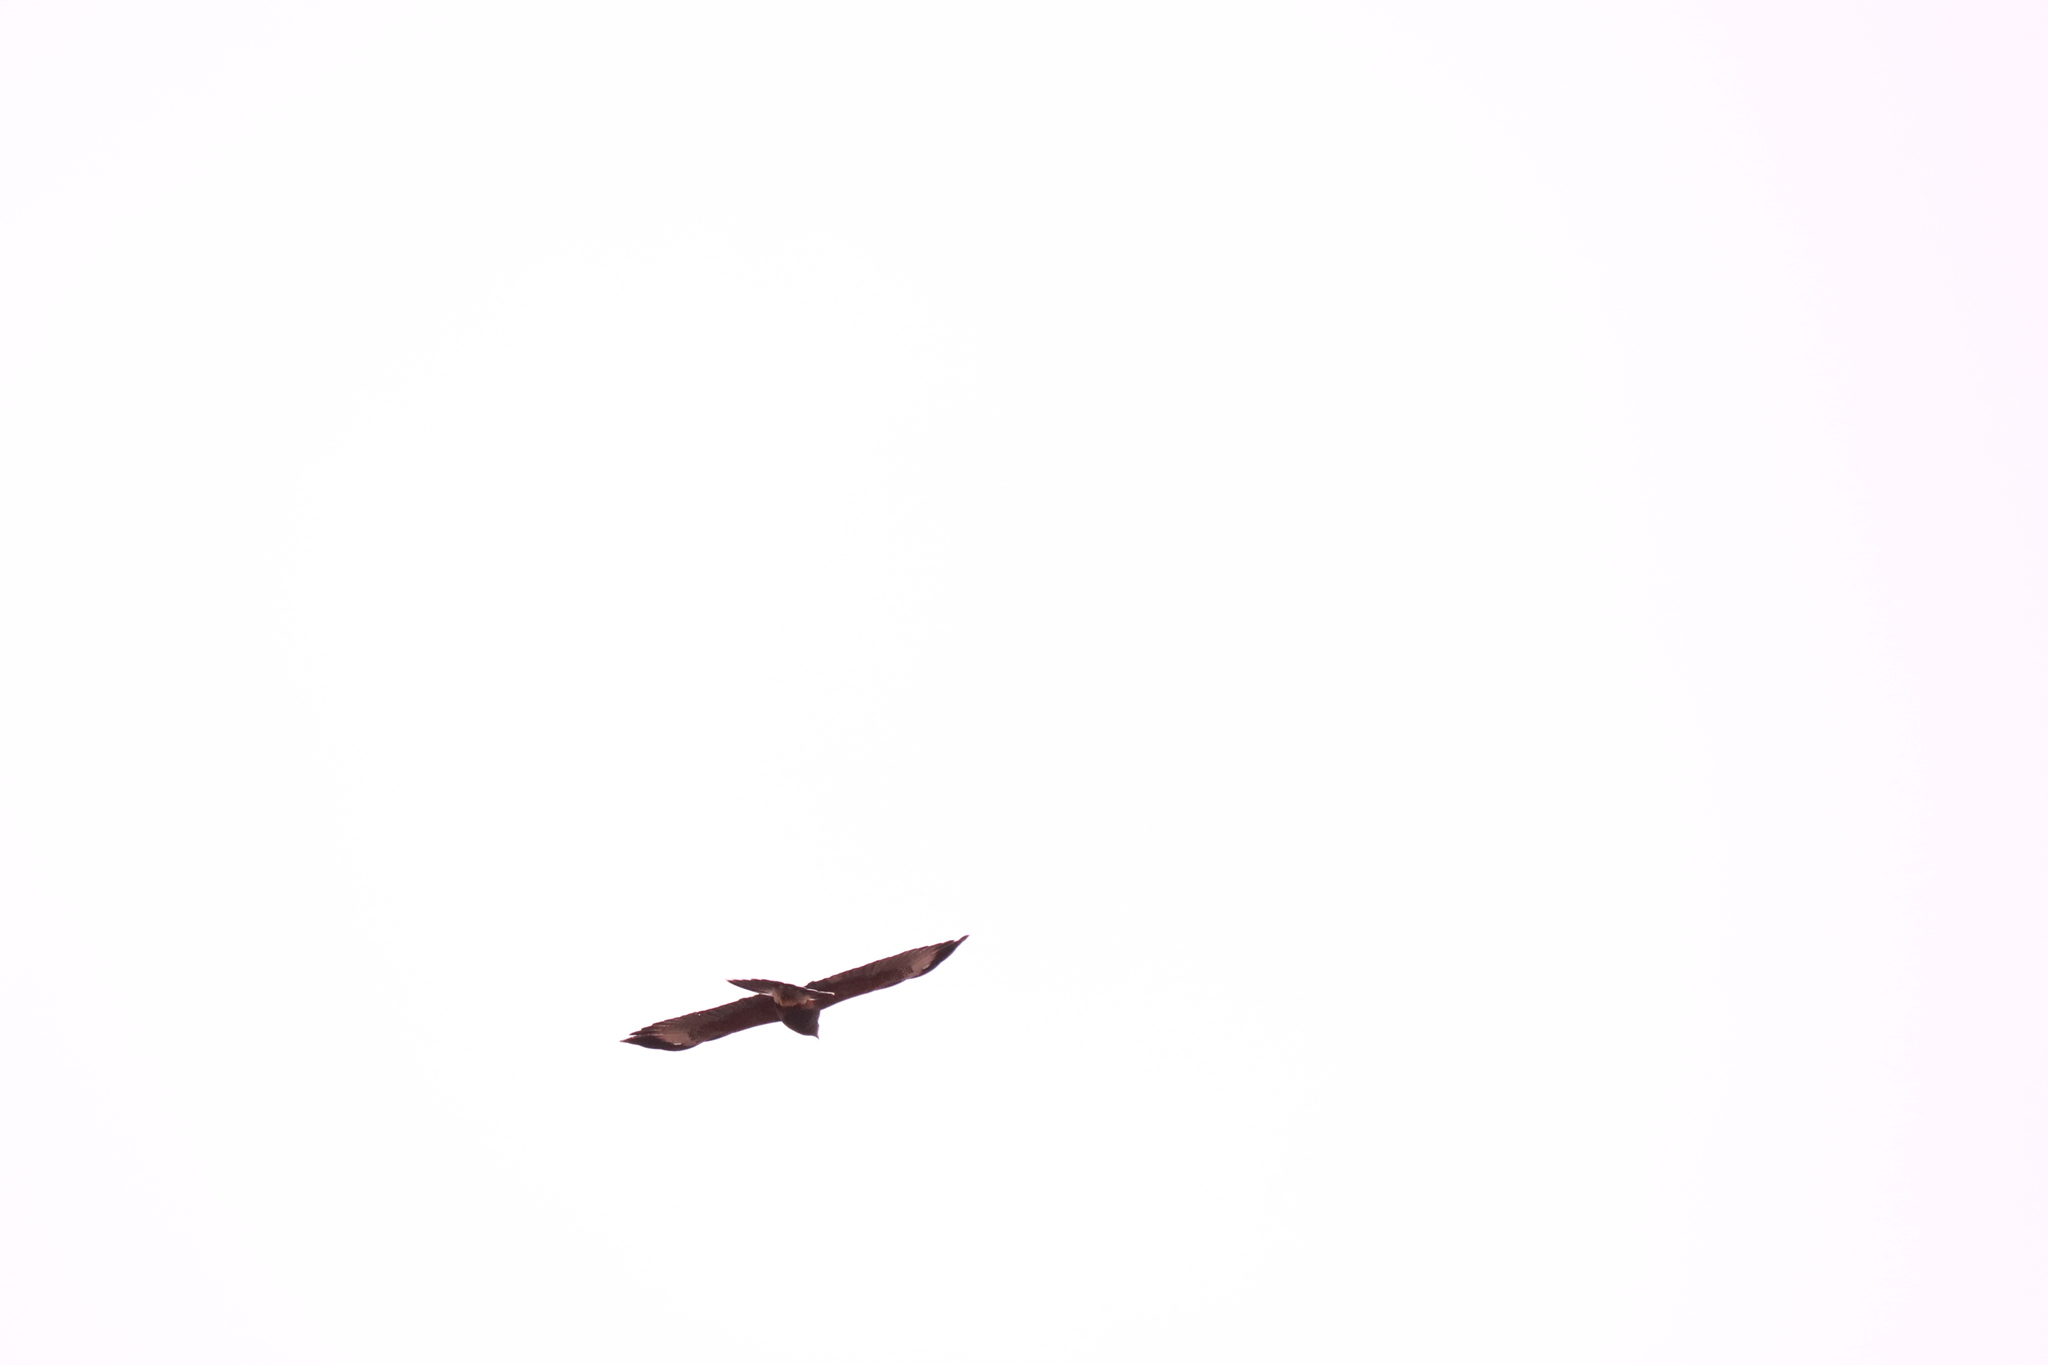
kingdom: Animalia
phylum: Chordata
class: Aves
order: Accipitriformes
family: Accipitridae
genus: Parabuteo
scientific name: Parabuteo unicinctus
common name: Harris's hawk
